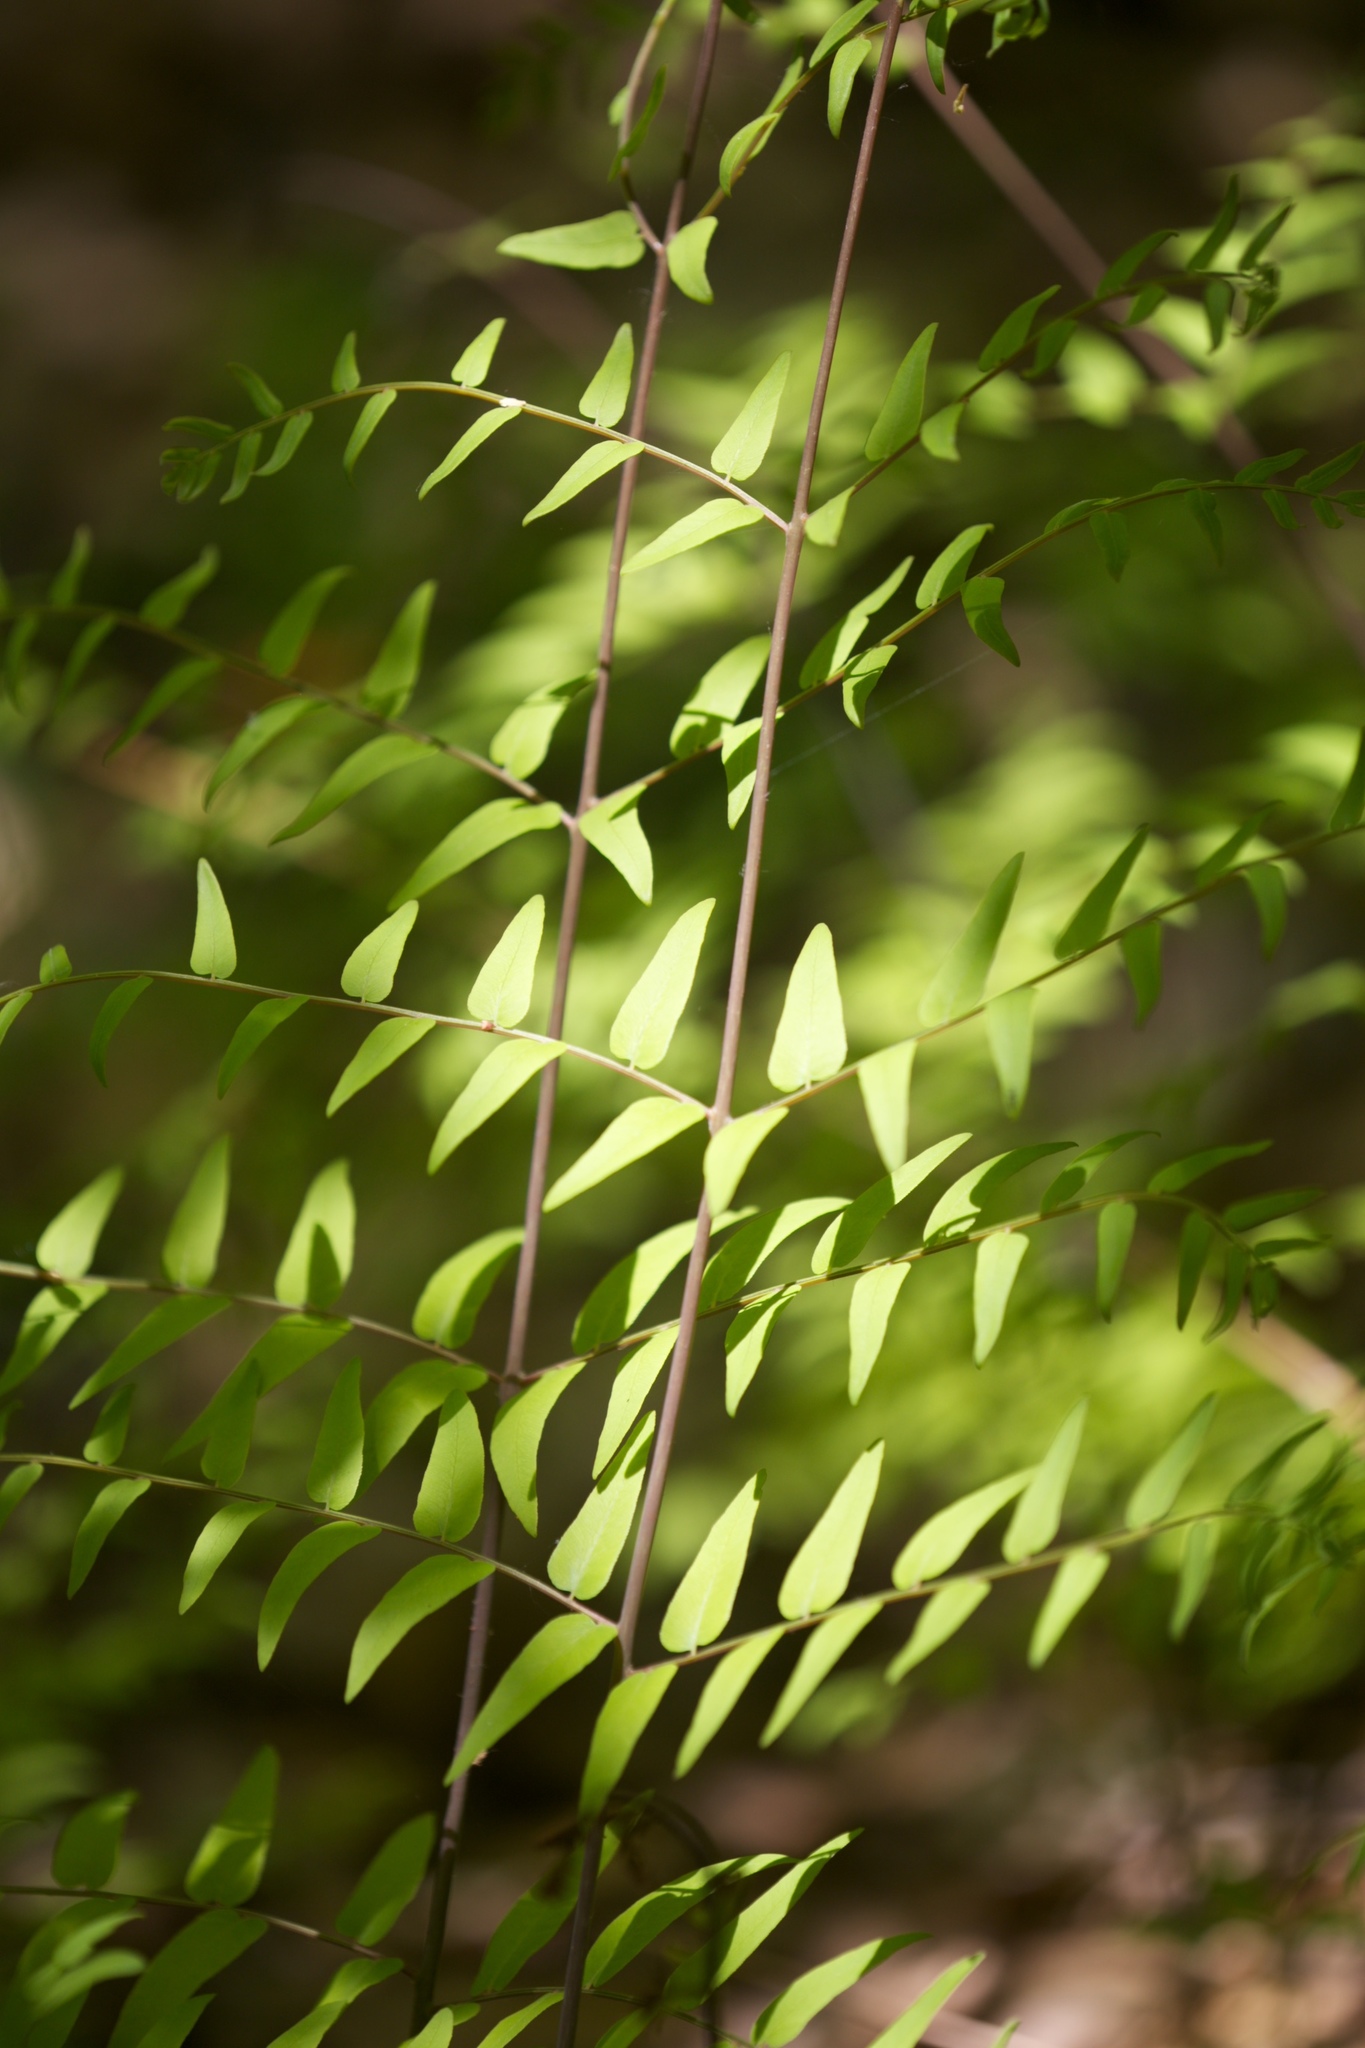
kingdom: Plantae
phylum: Tracheophyta
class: Polypodiopsida
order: Osmundales
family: Osmundaceae
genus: Osmunda
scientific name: Osmunda spectabilis
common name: American royal fern
